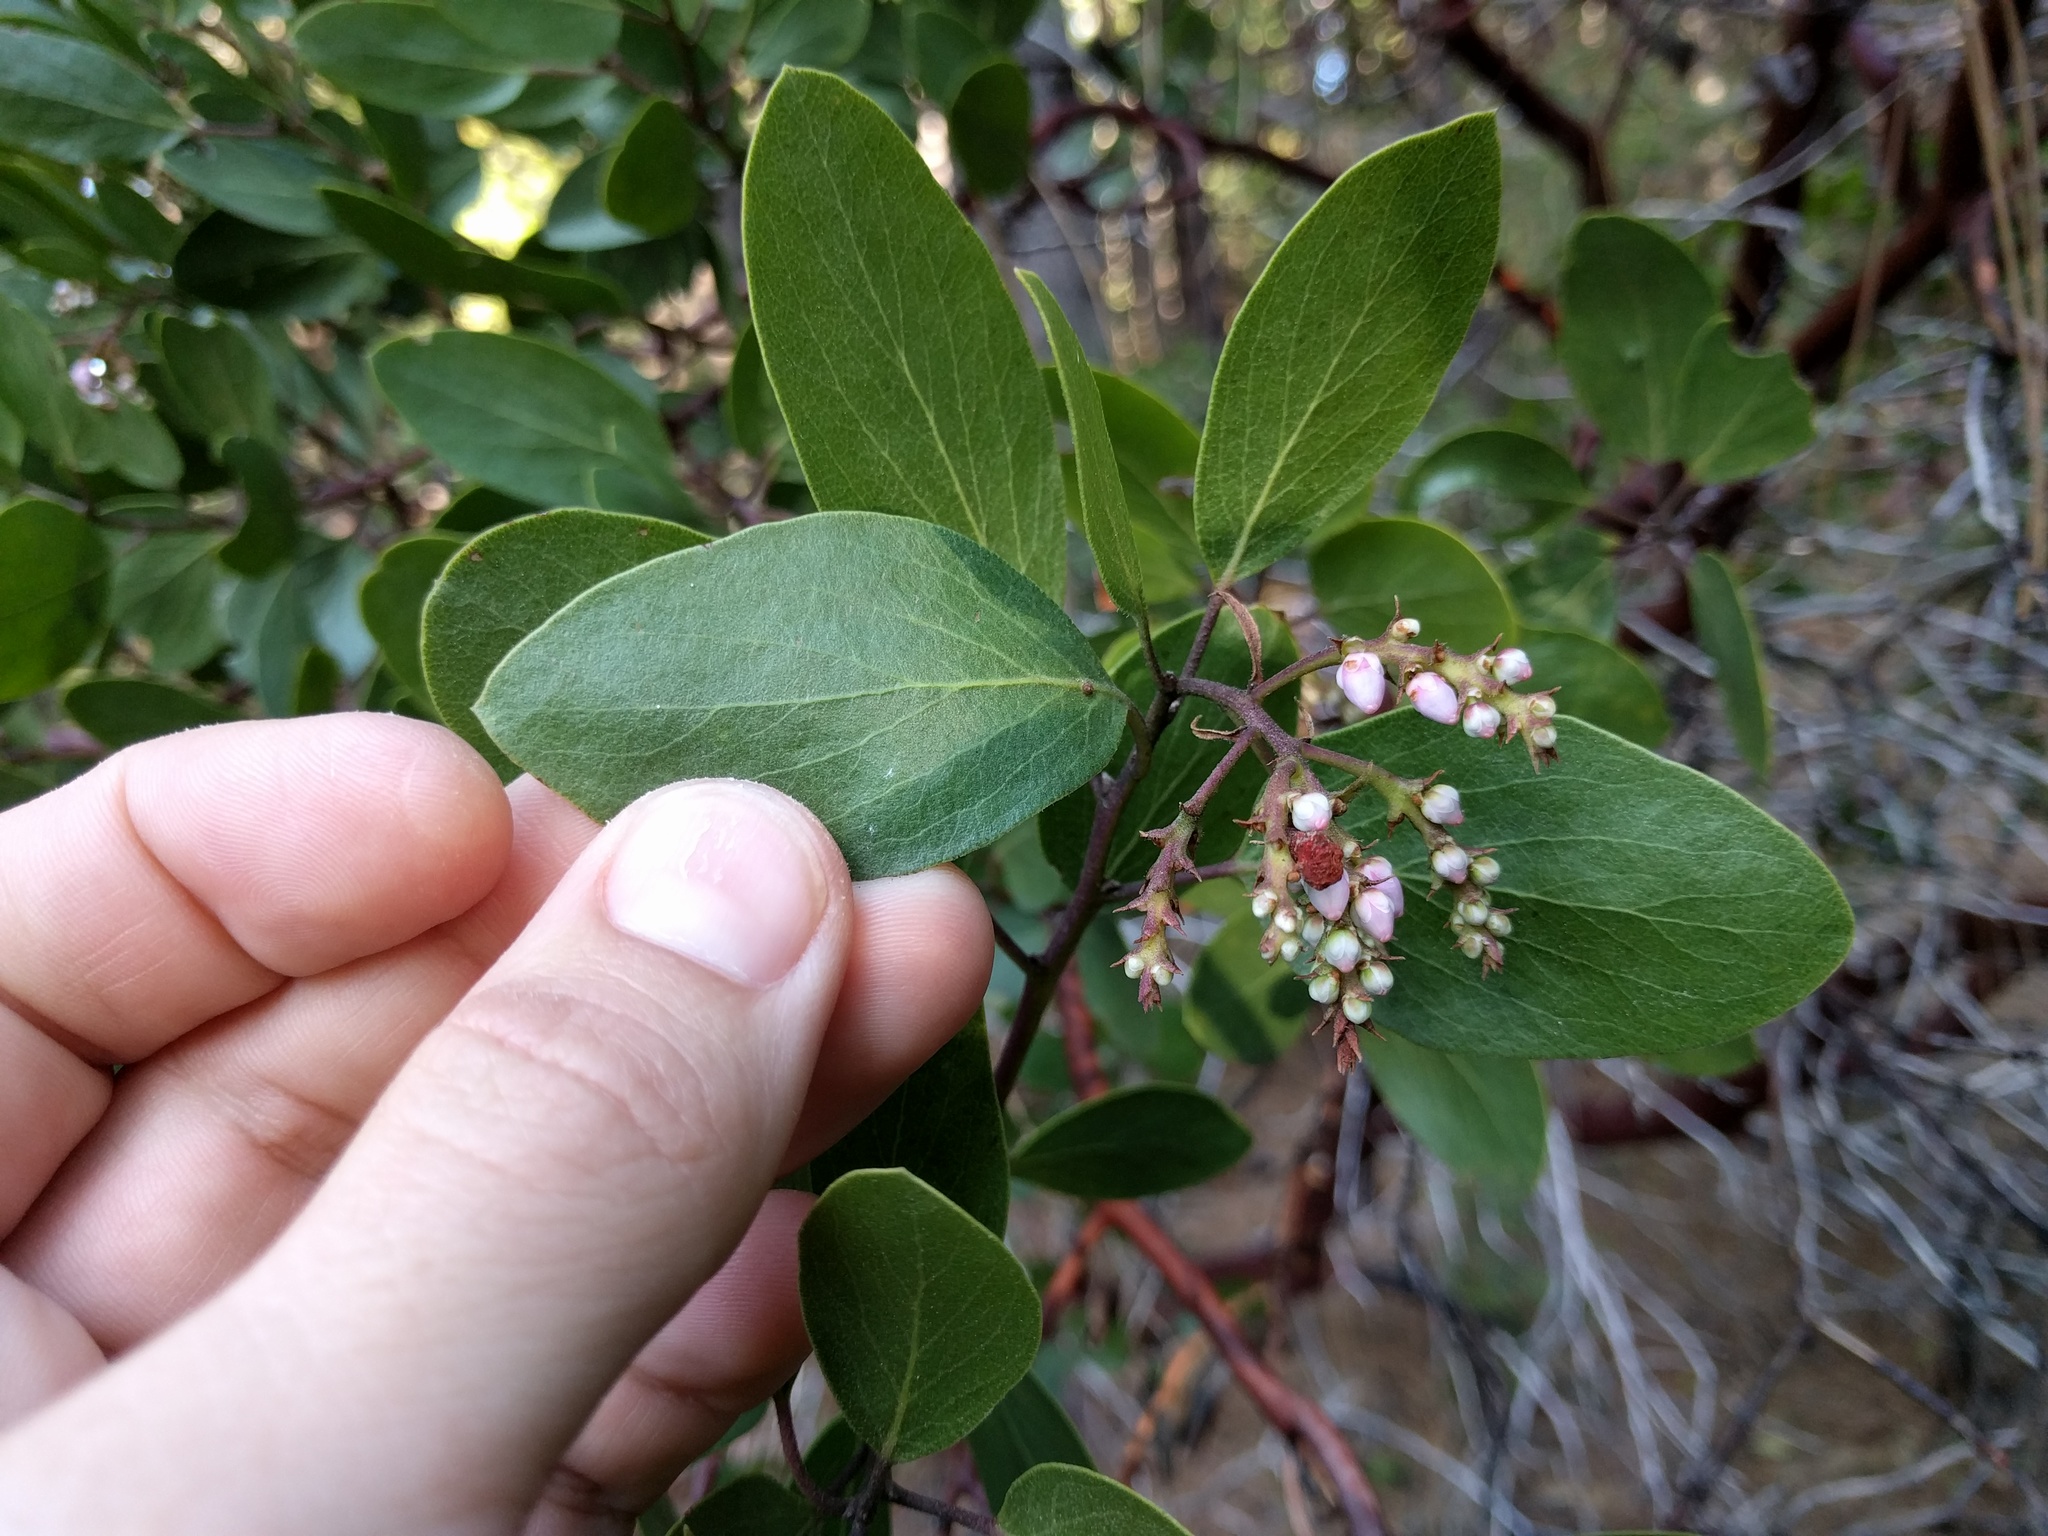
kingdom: Plantae
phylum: Tracheophyta
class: Magnoliopsida
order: Ericales
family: Ericaceae
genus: Arctostaphylos
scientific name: Arctostaphylos patula
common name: Green-leaf manzanita
